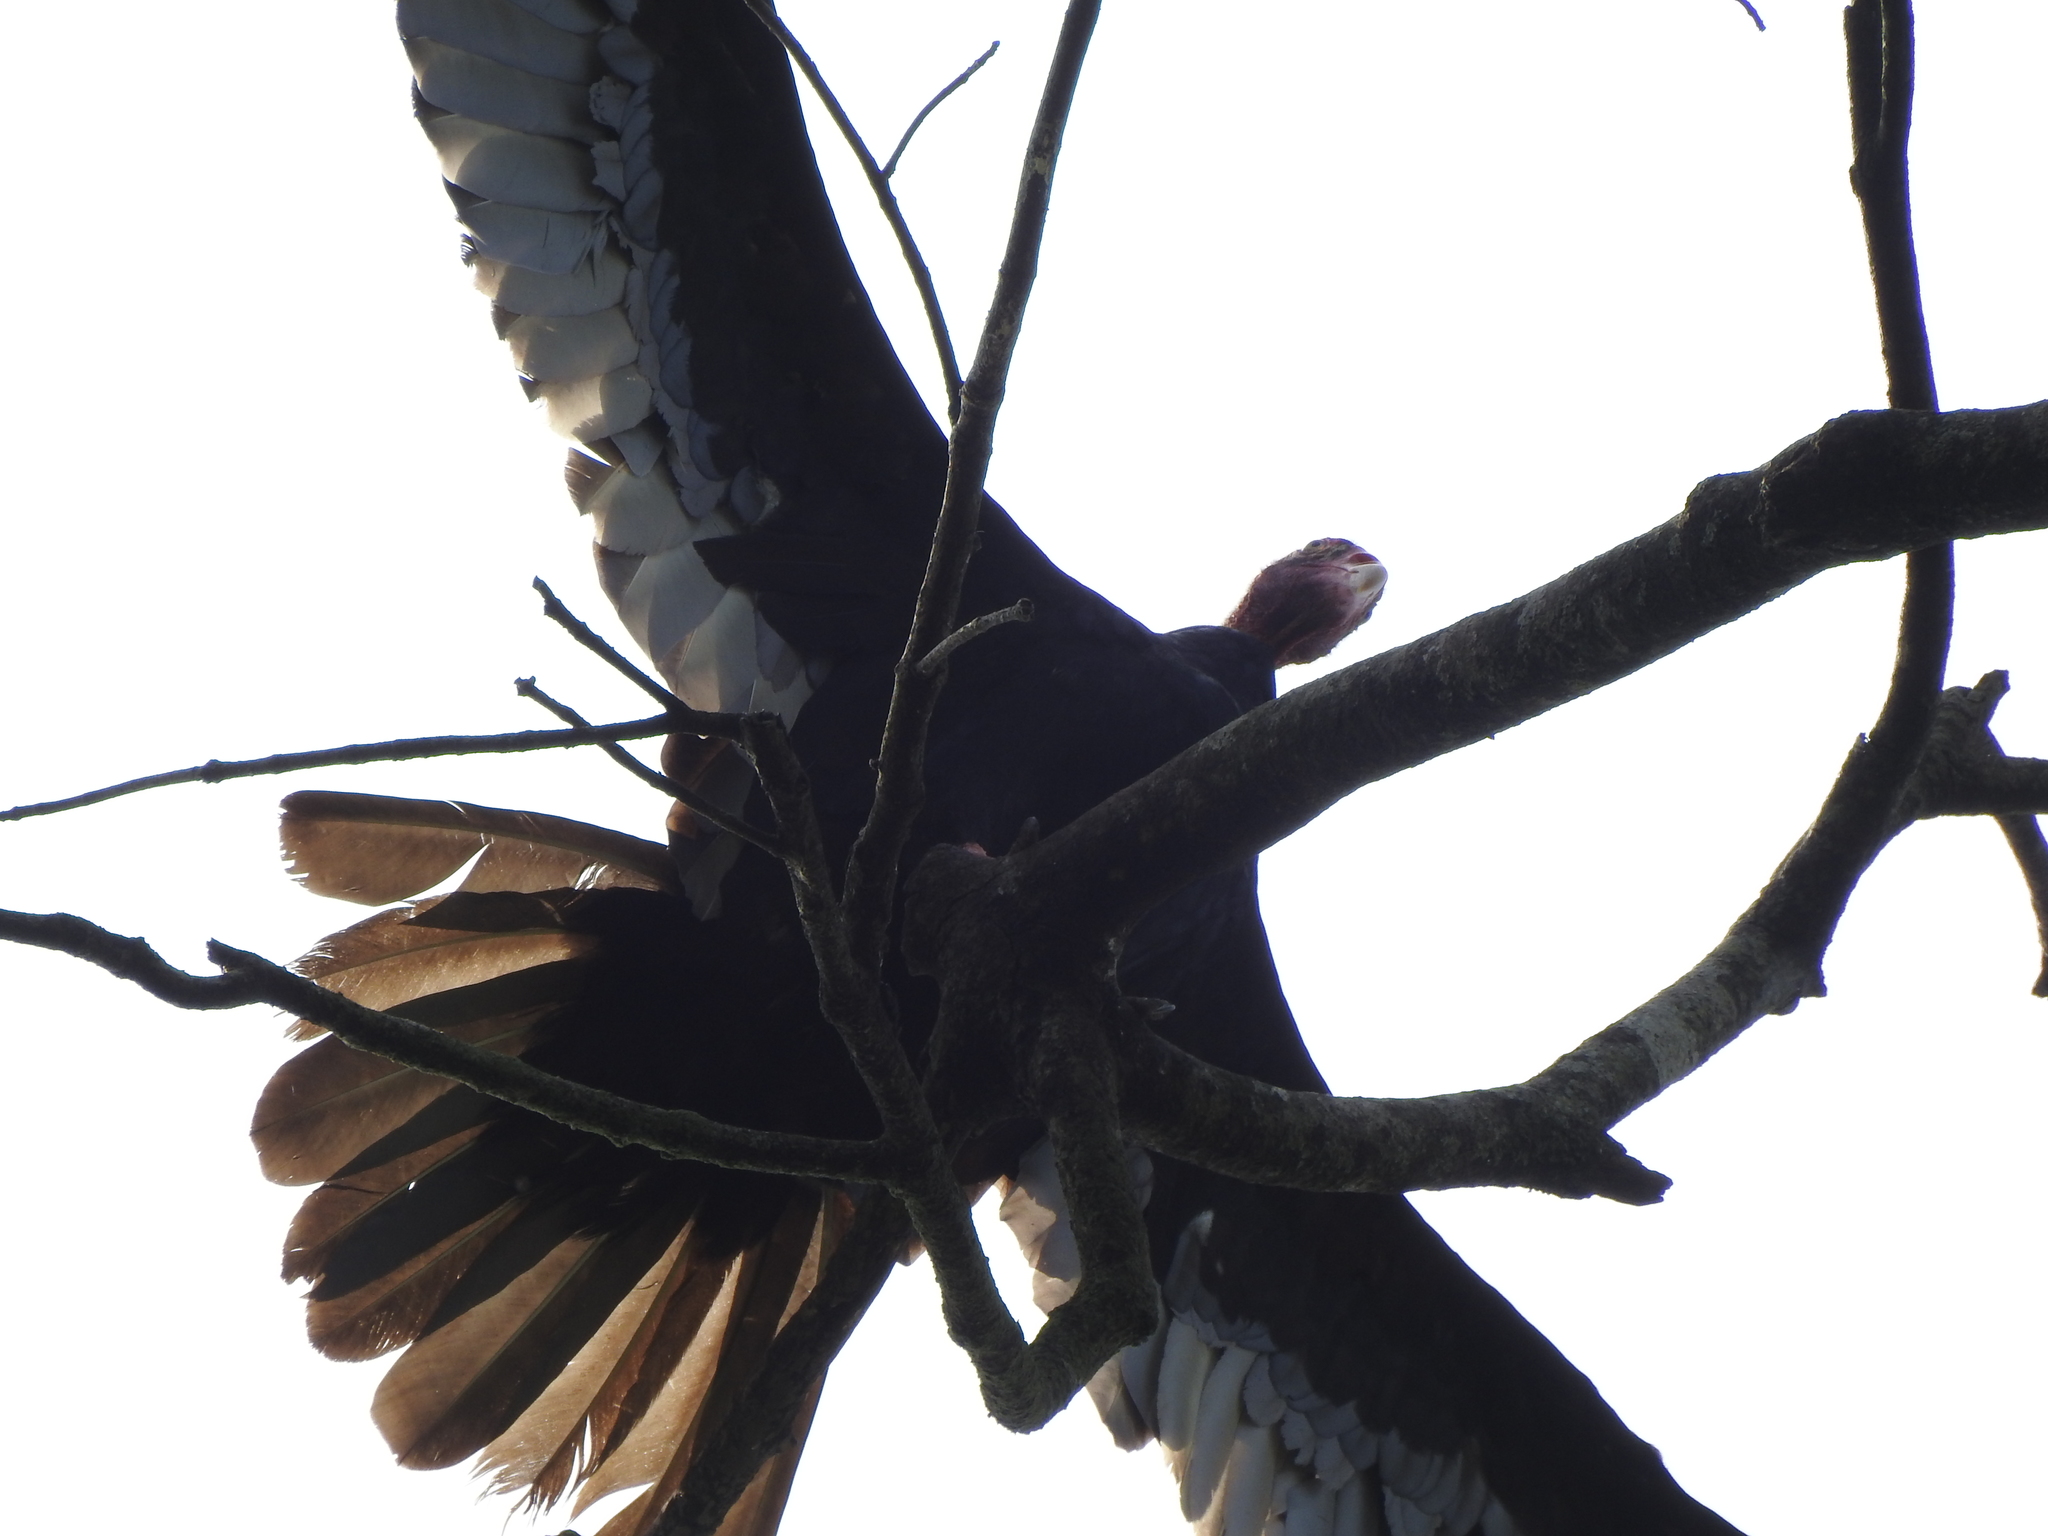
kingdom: Animalia
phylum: Chordata
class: Aves
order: Accipitriformes
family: Cathartidae
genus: Cathartes
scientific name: Cathartes aura
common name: Turkey vulture
